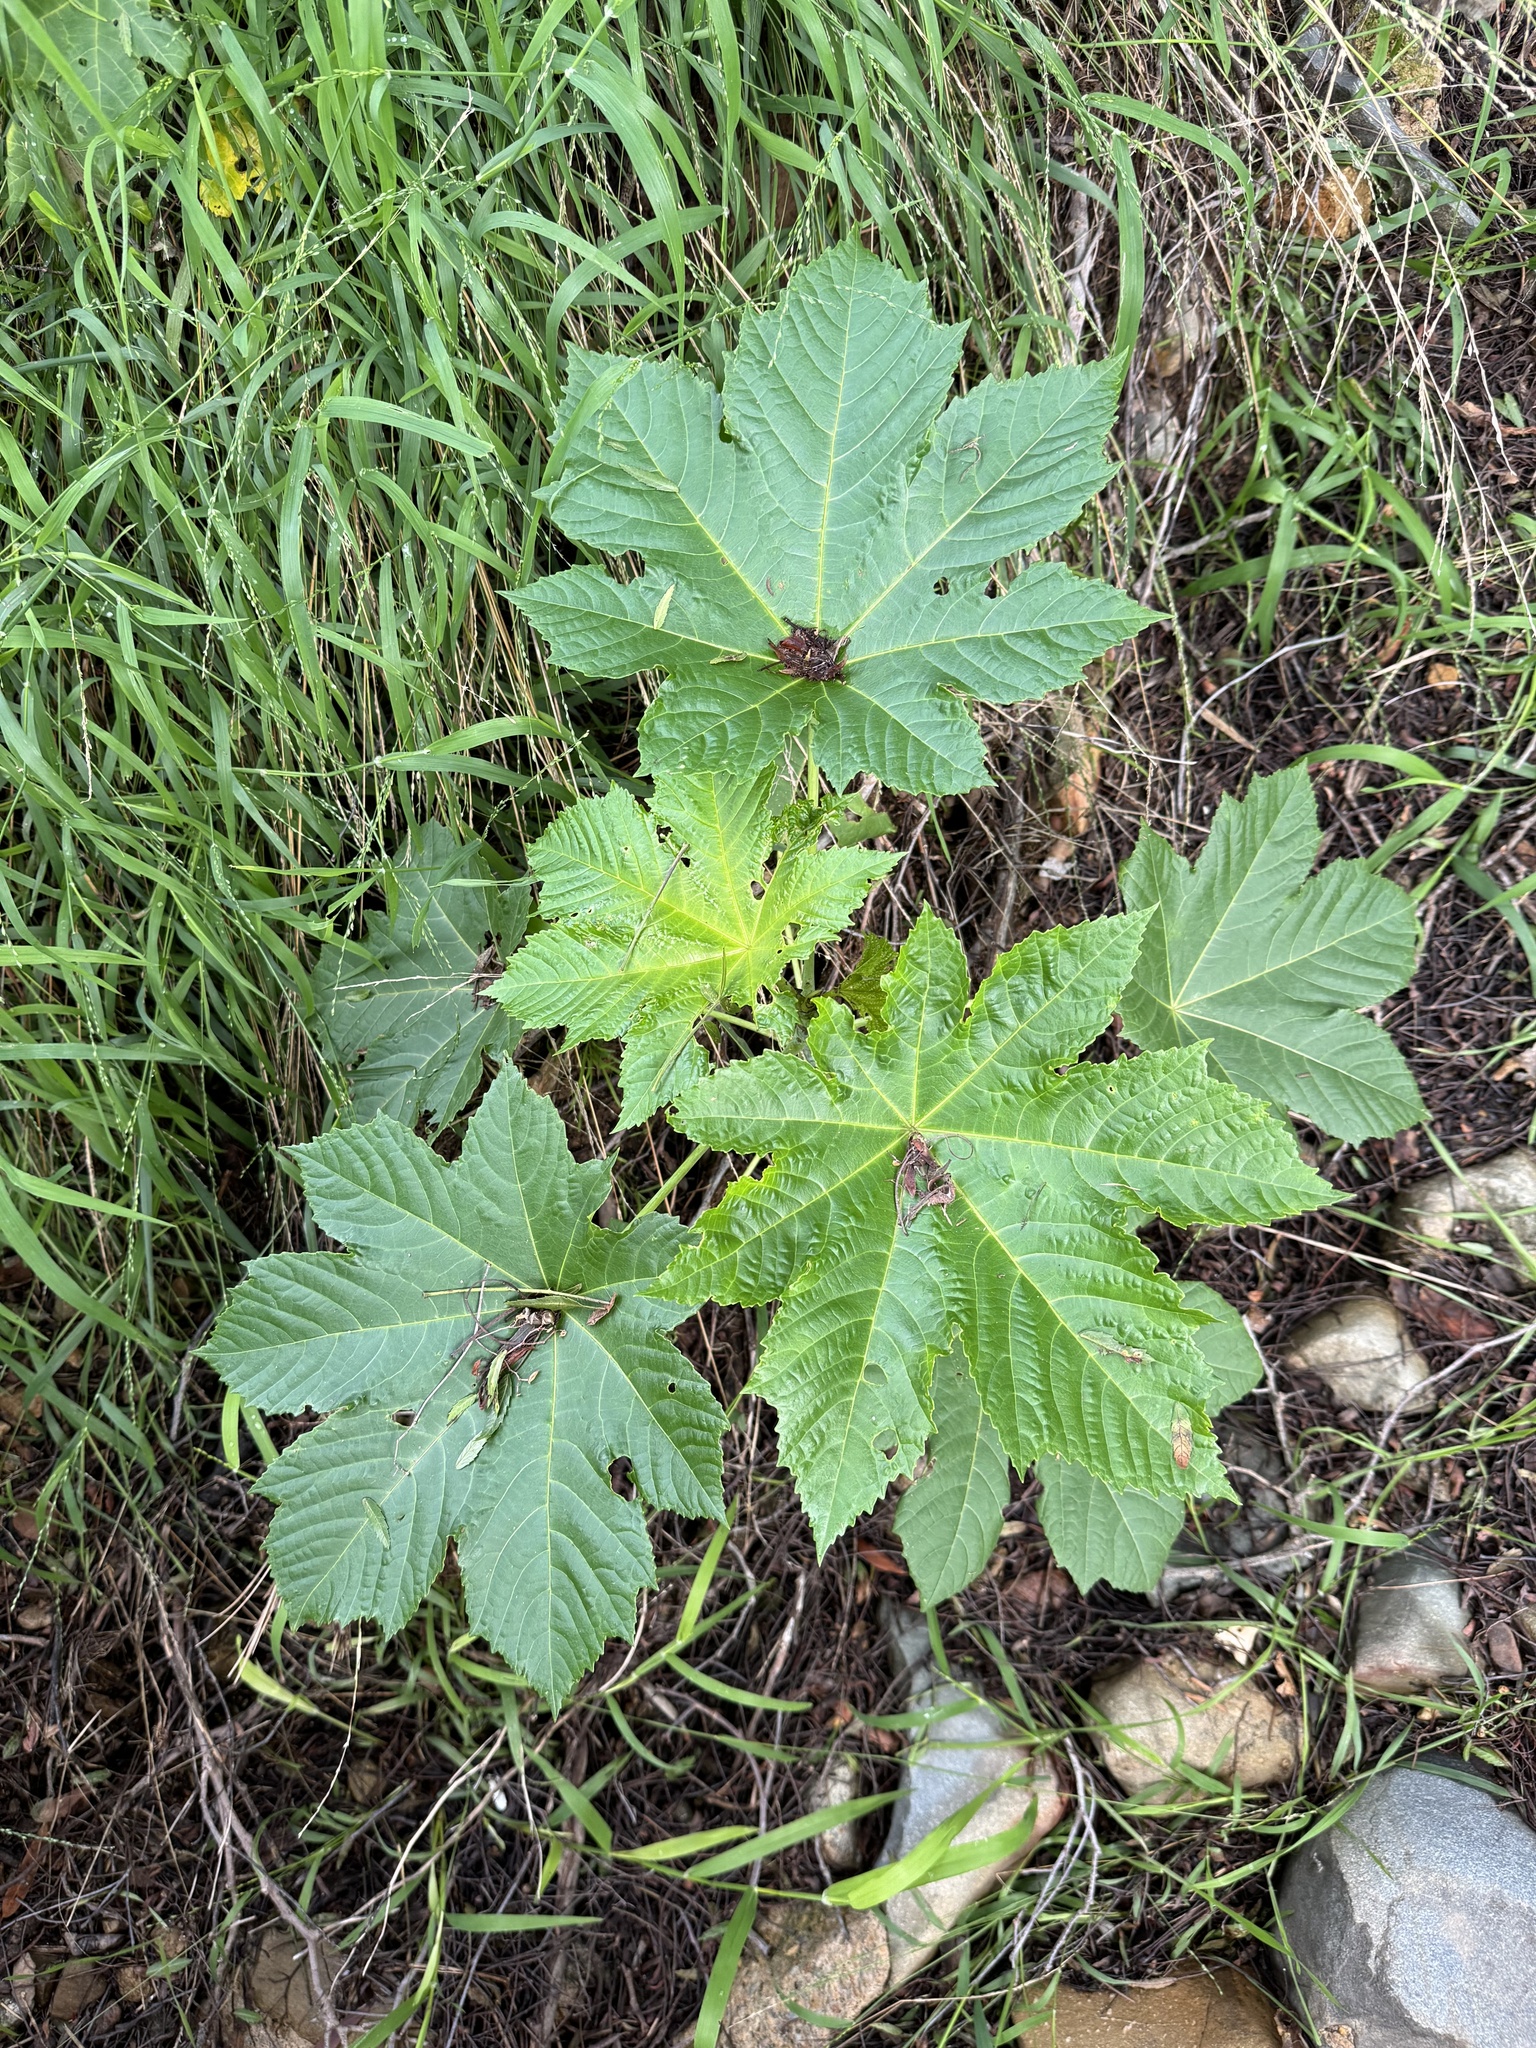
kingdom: Plantae
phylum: Tracheophyta
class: Magnoliopsida
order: Malpighiales
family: Euphorbiaceae
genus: Ricinus
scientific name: Ricinus communis
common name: Castor-oil-plant
